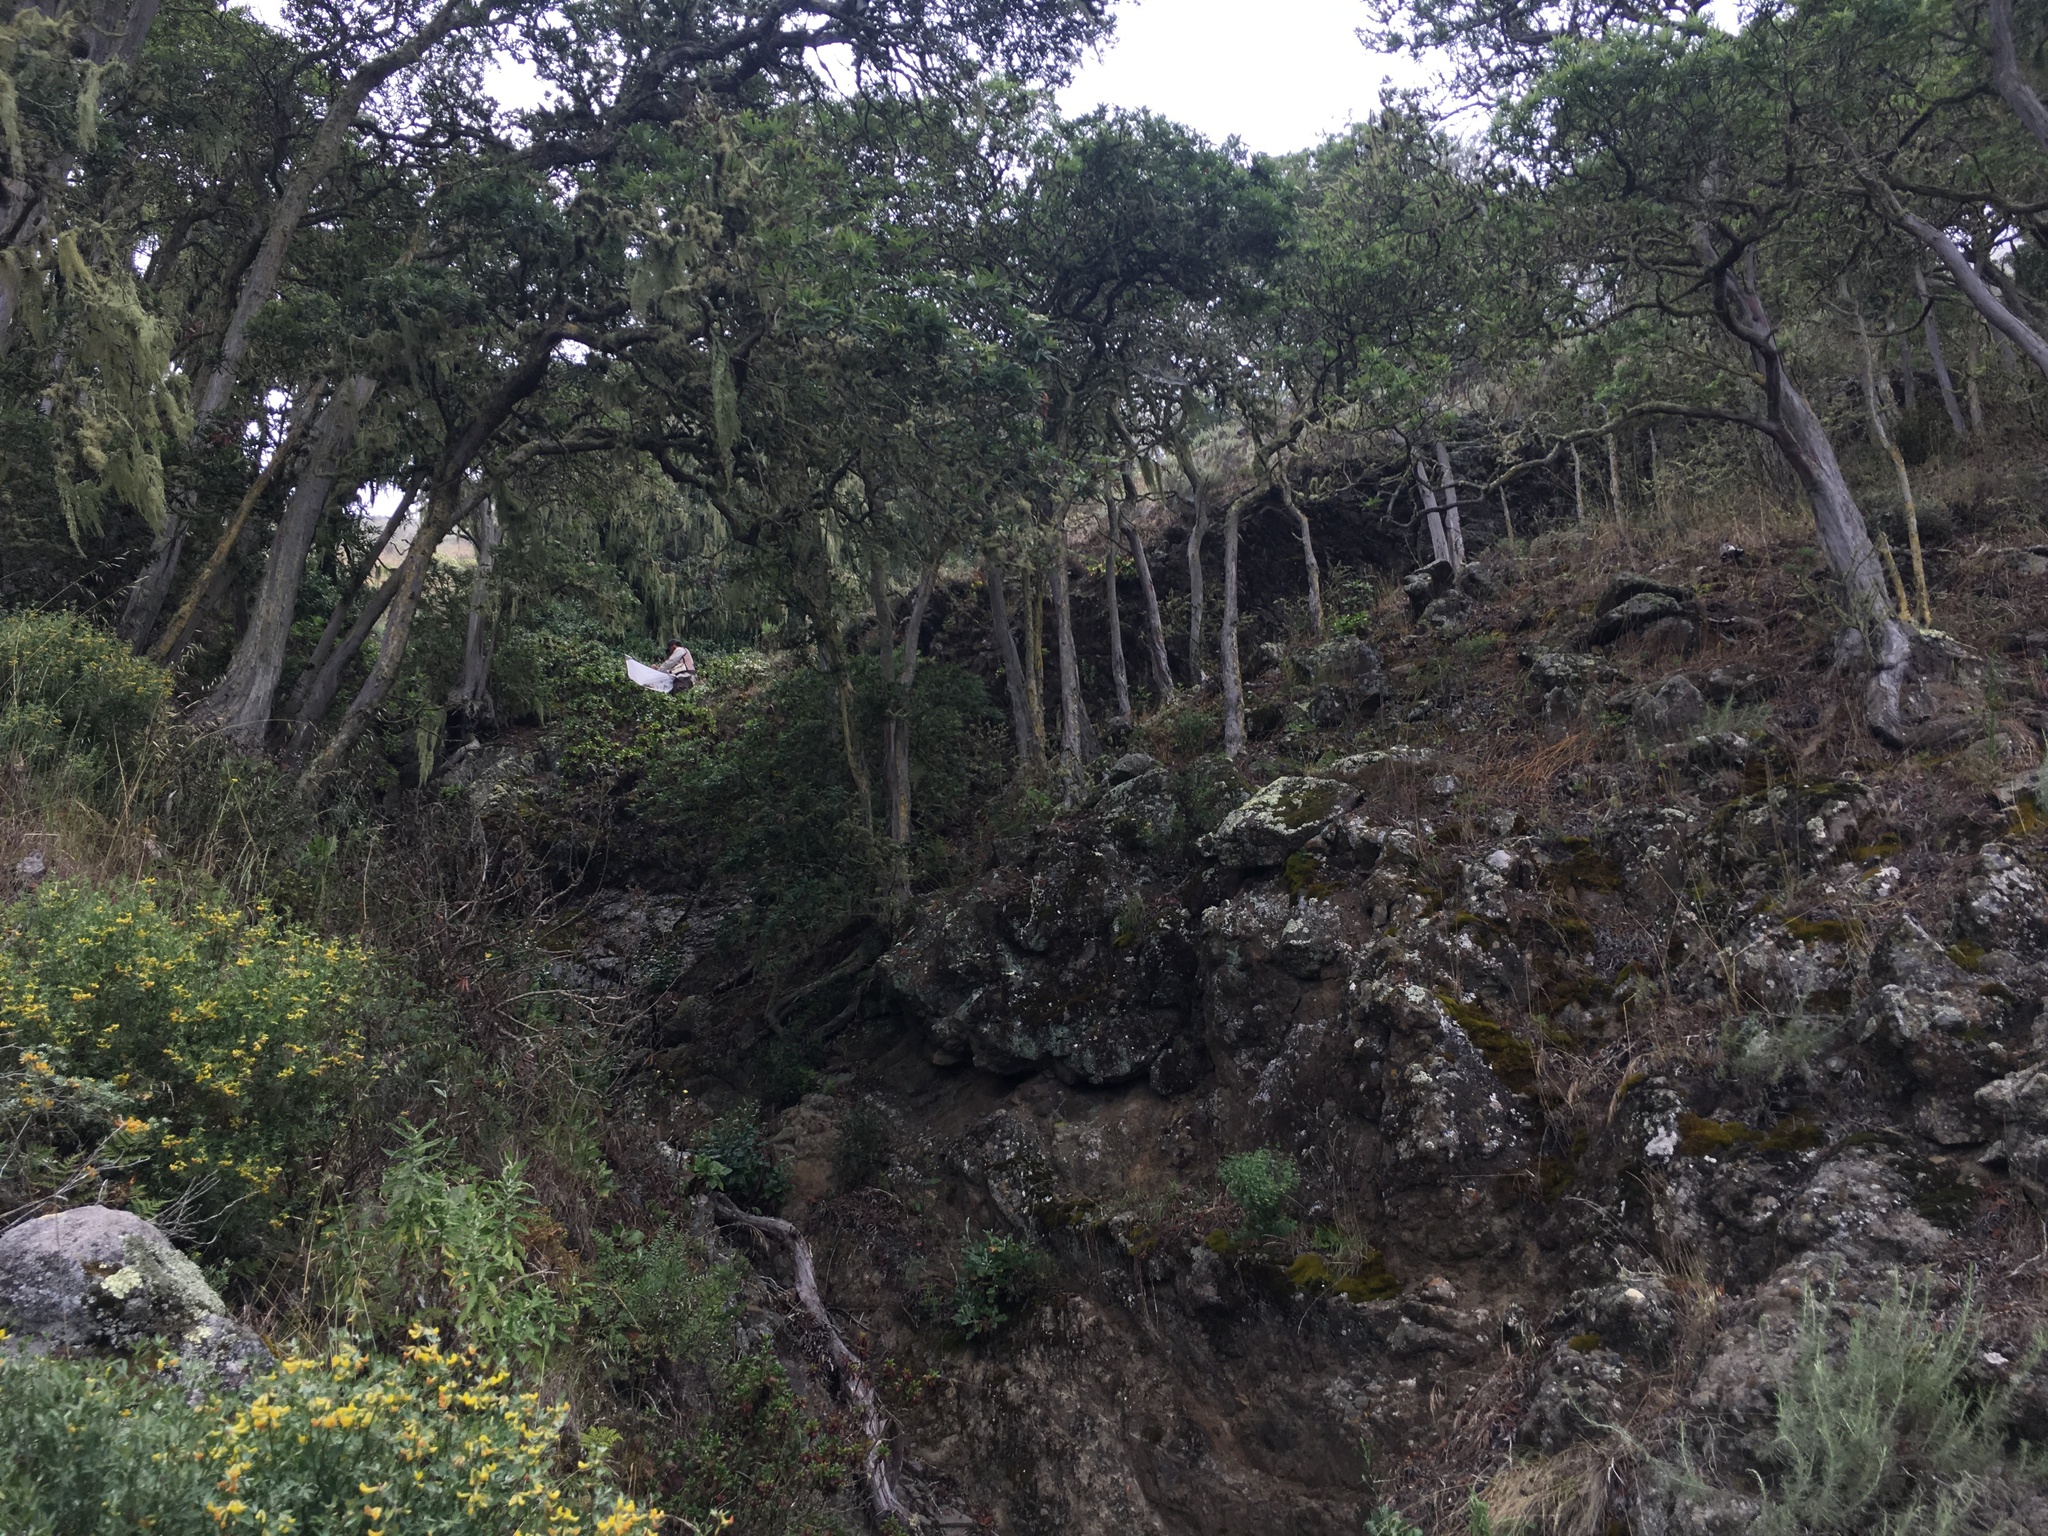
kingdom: Plantae
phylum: Tracheophyta
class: Magnoliopsida
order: Rosales
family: Rosaceae
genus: Lyonothamnus
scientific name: Lyonothamnus floribundus
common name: Catalina ironwood
